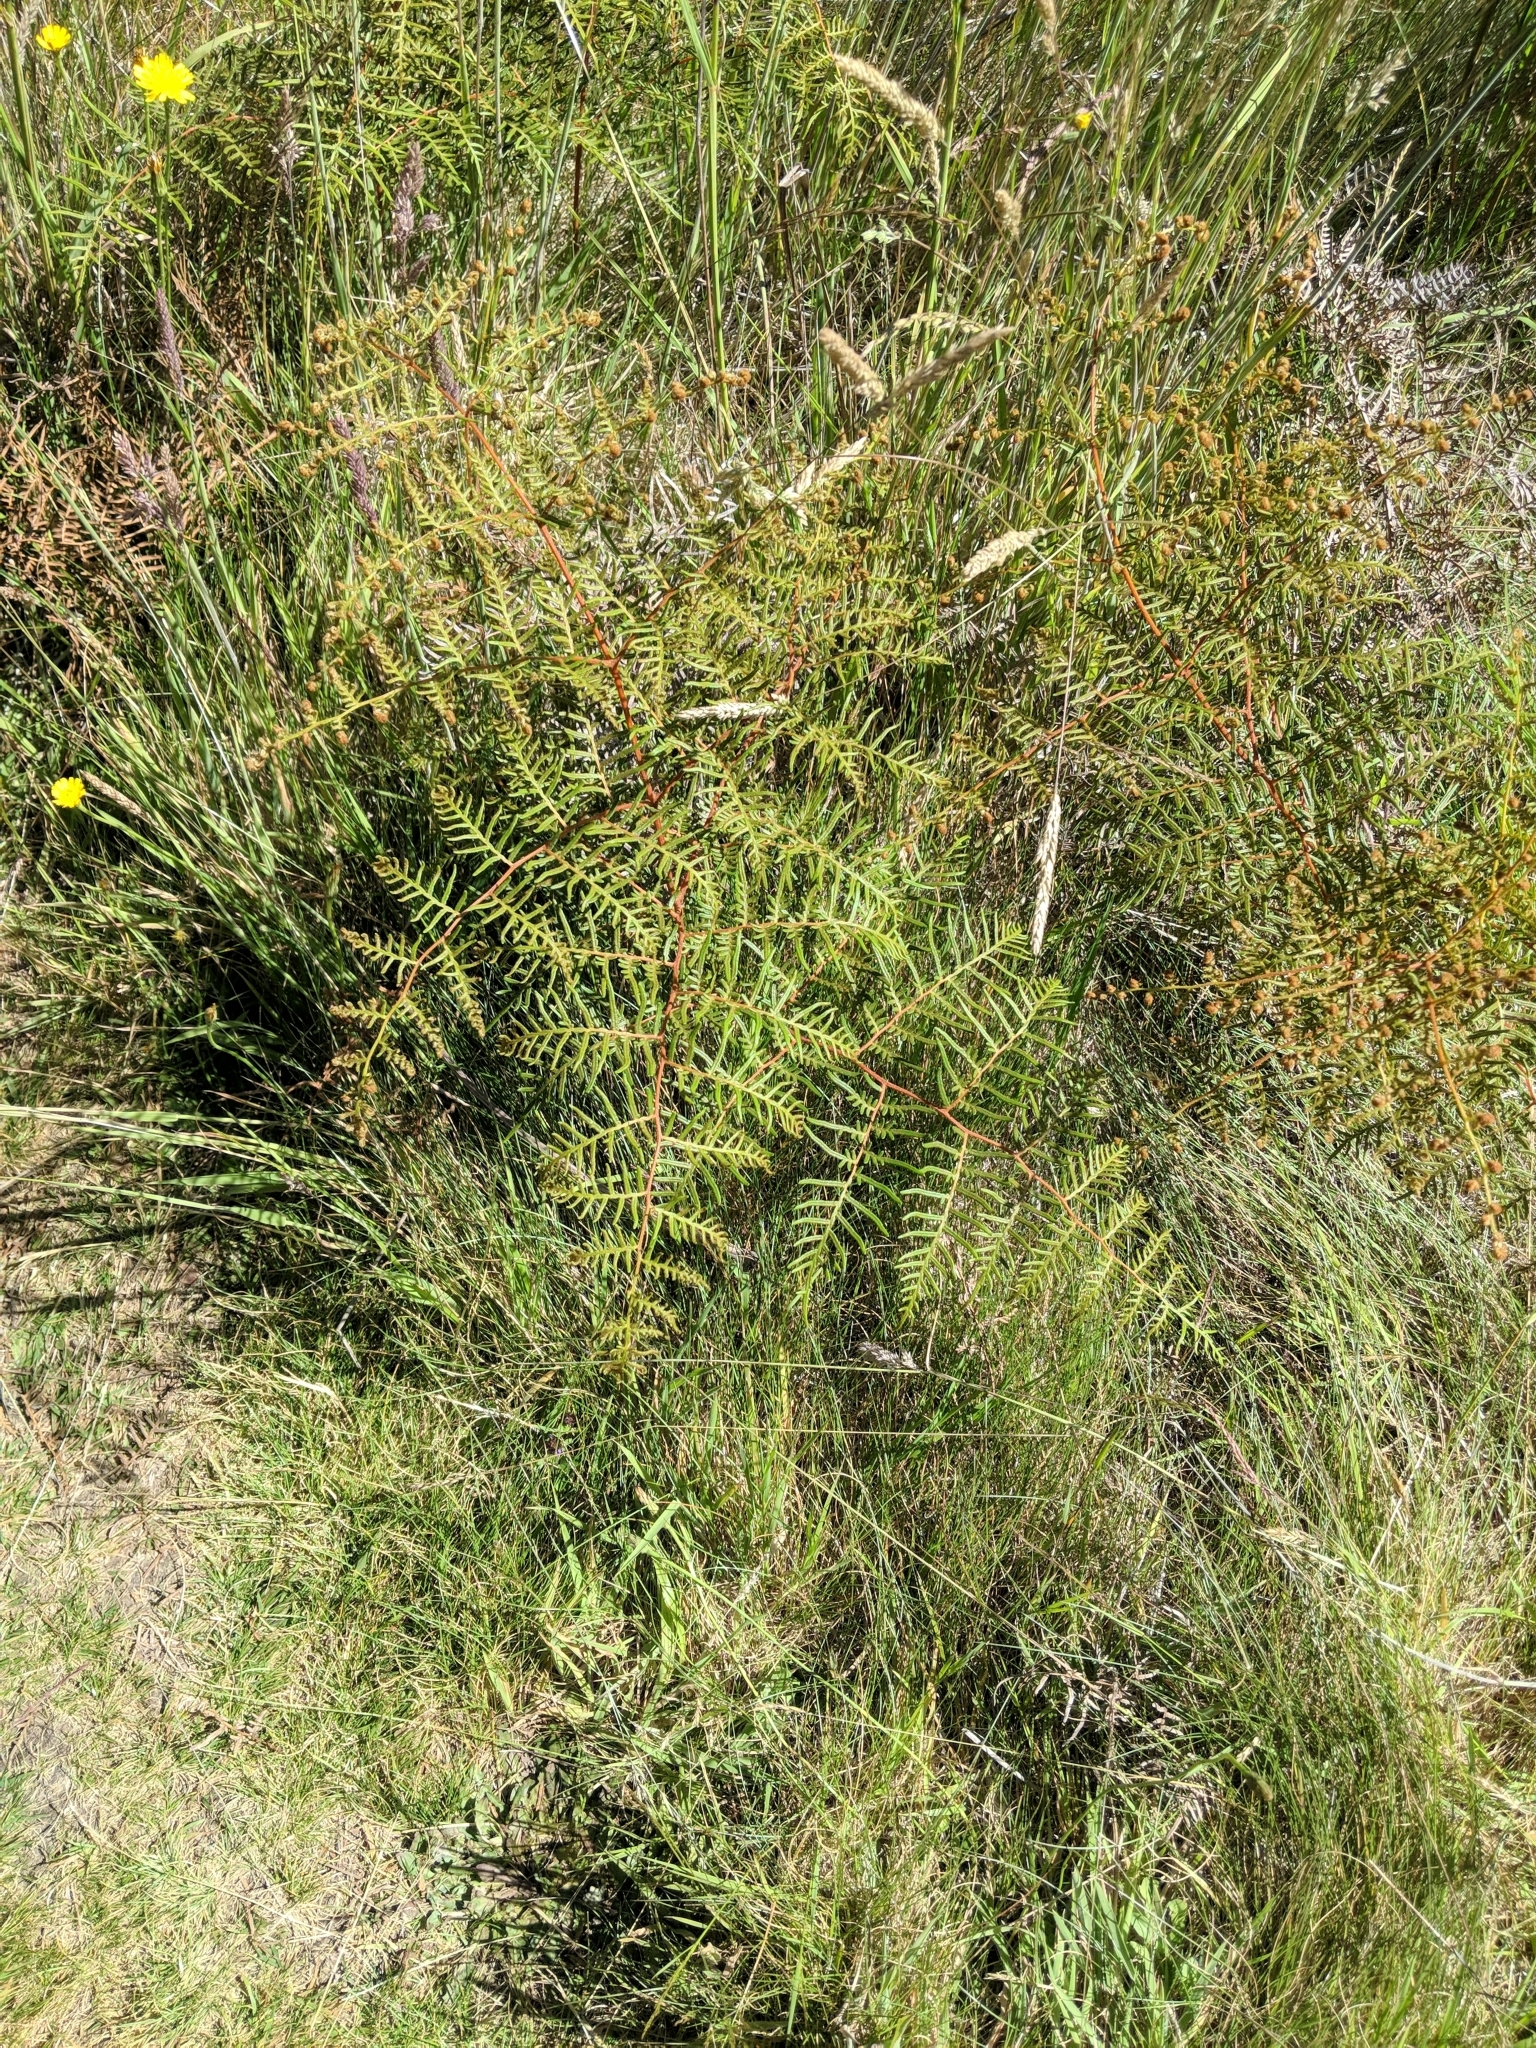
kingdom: Plantae
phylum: Tracheophyta
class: Polypodiopsida
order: Polypodiales
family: Dennstaedtiaceae
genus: Pteridium
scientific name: Pteridium esculentum
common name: Bracken fern
